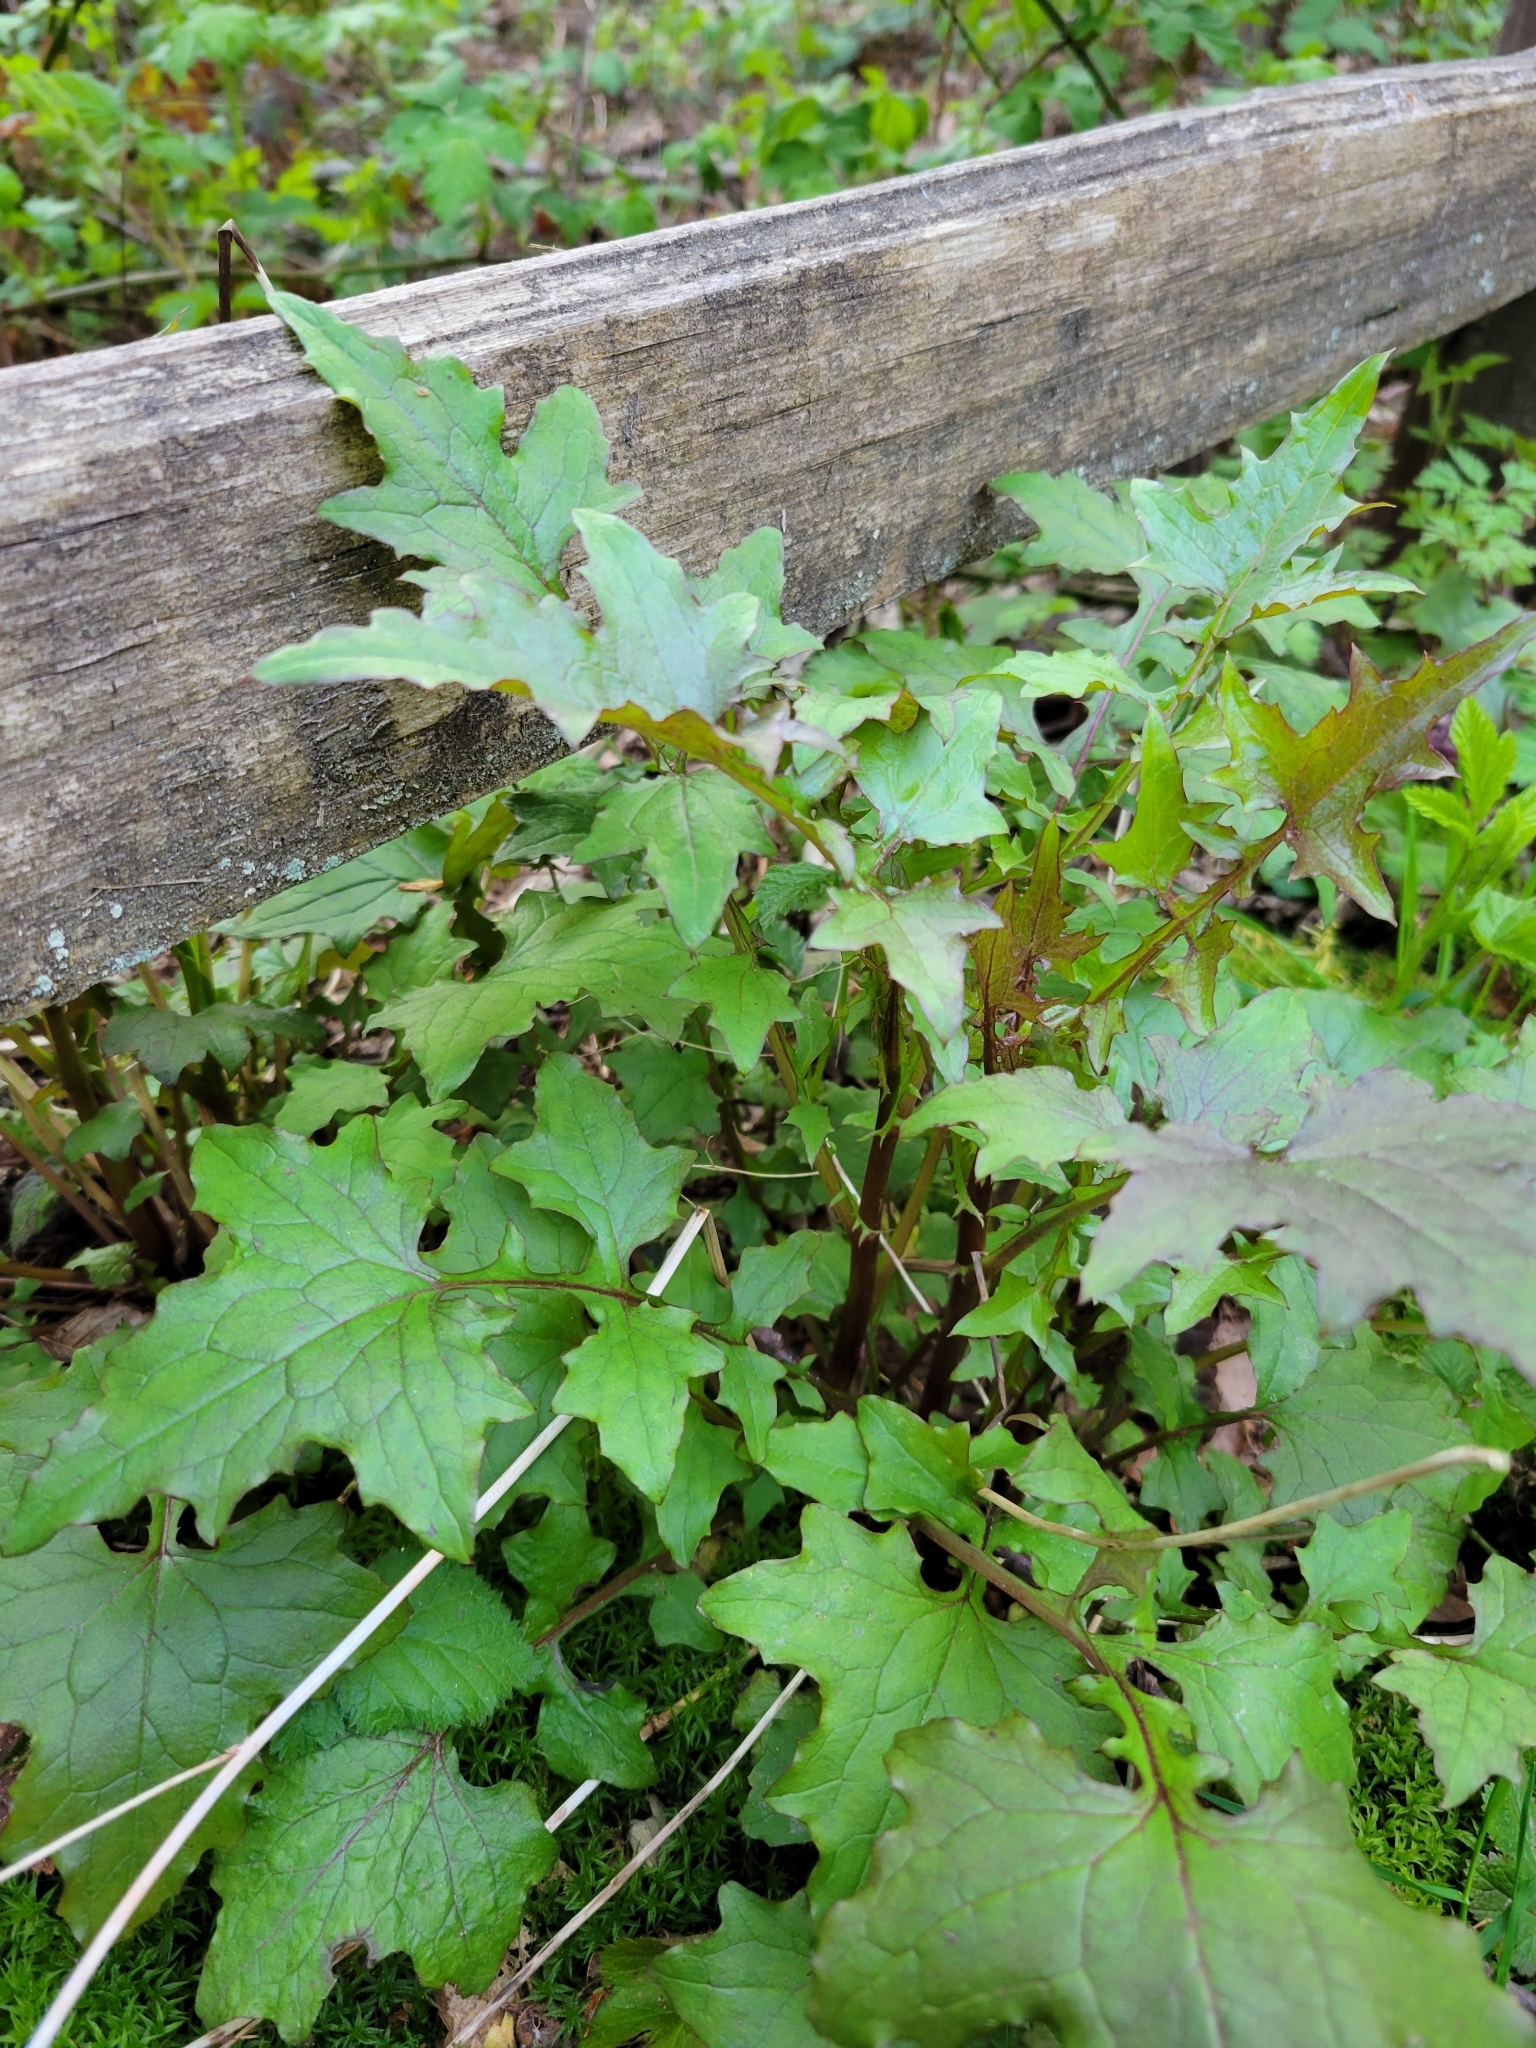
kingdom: Plantae
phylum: Tracheophyta
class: Magnoliopsida
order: Asterales
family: Asteraceae
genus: Mycelis
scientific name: Mycelis muralis
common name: Wall lettuce
